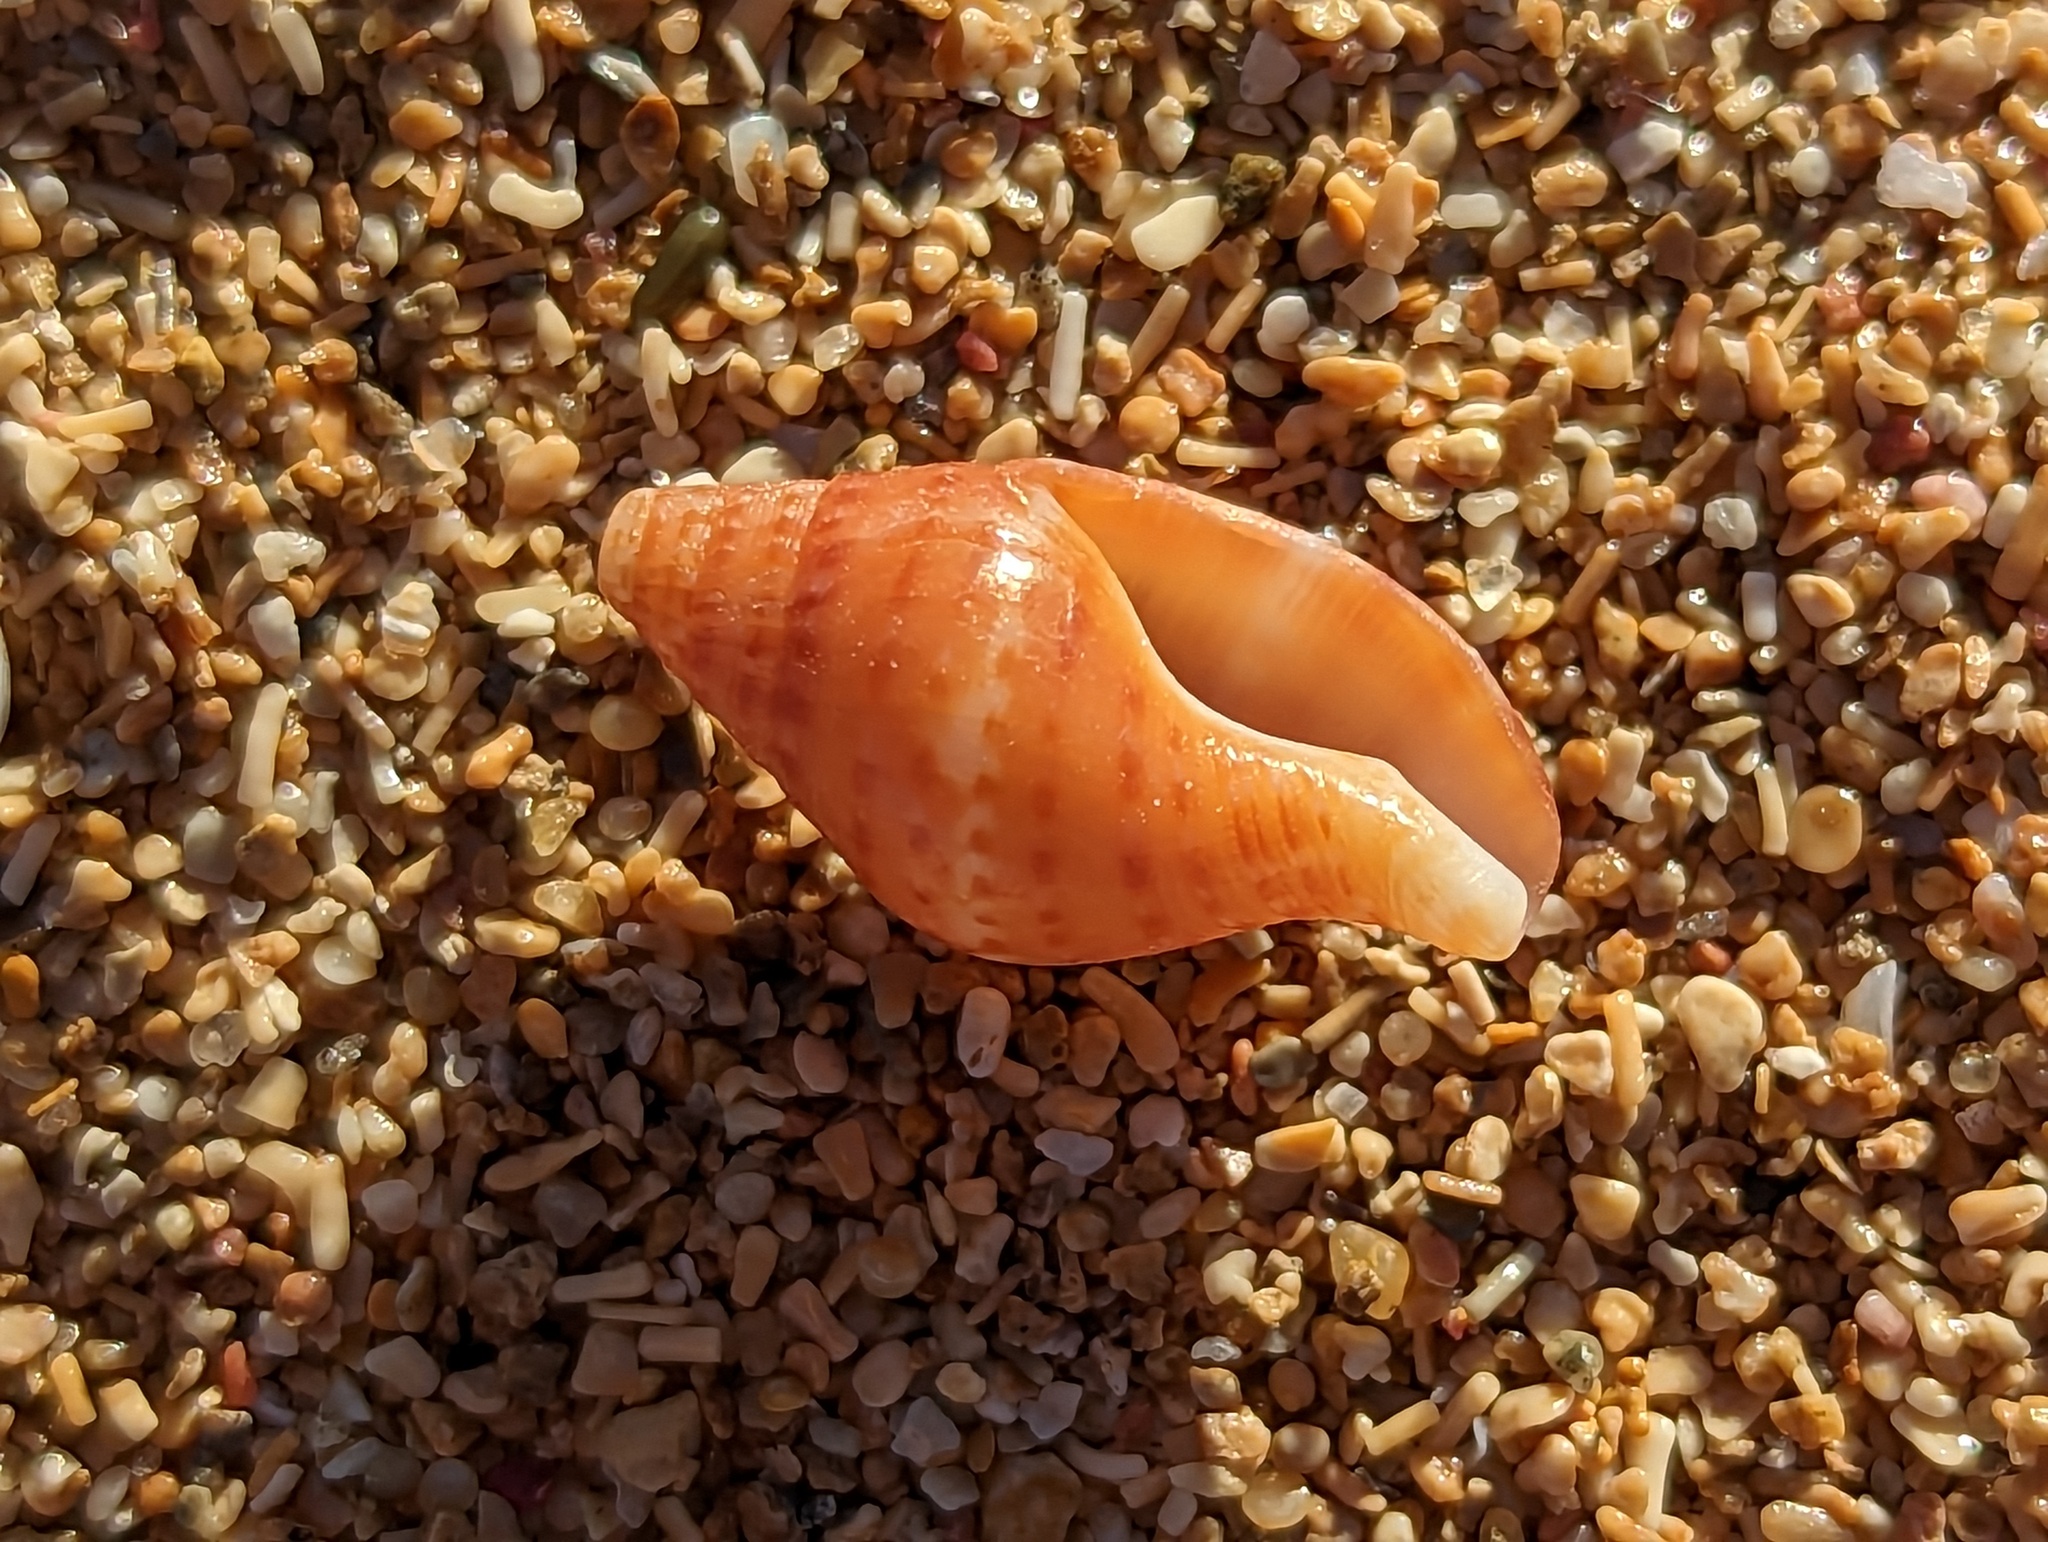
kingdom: Animalia
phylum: Mollusca
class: Gastropoda
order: Neogastropoda
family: Pisaniidae
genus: Pisania
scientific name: Pisania pusio
